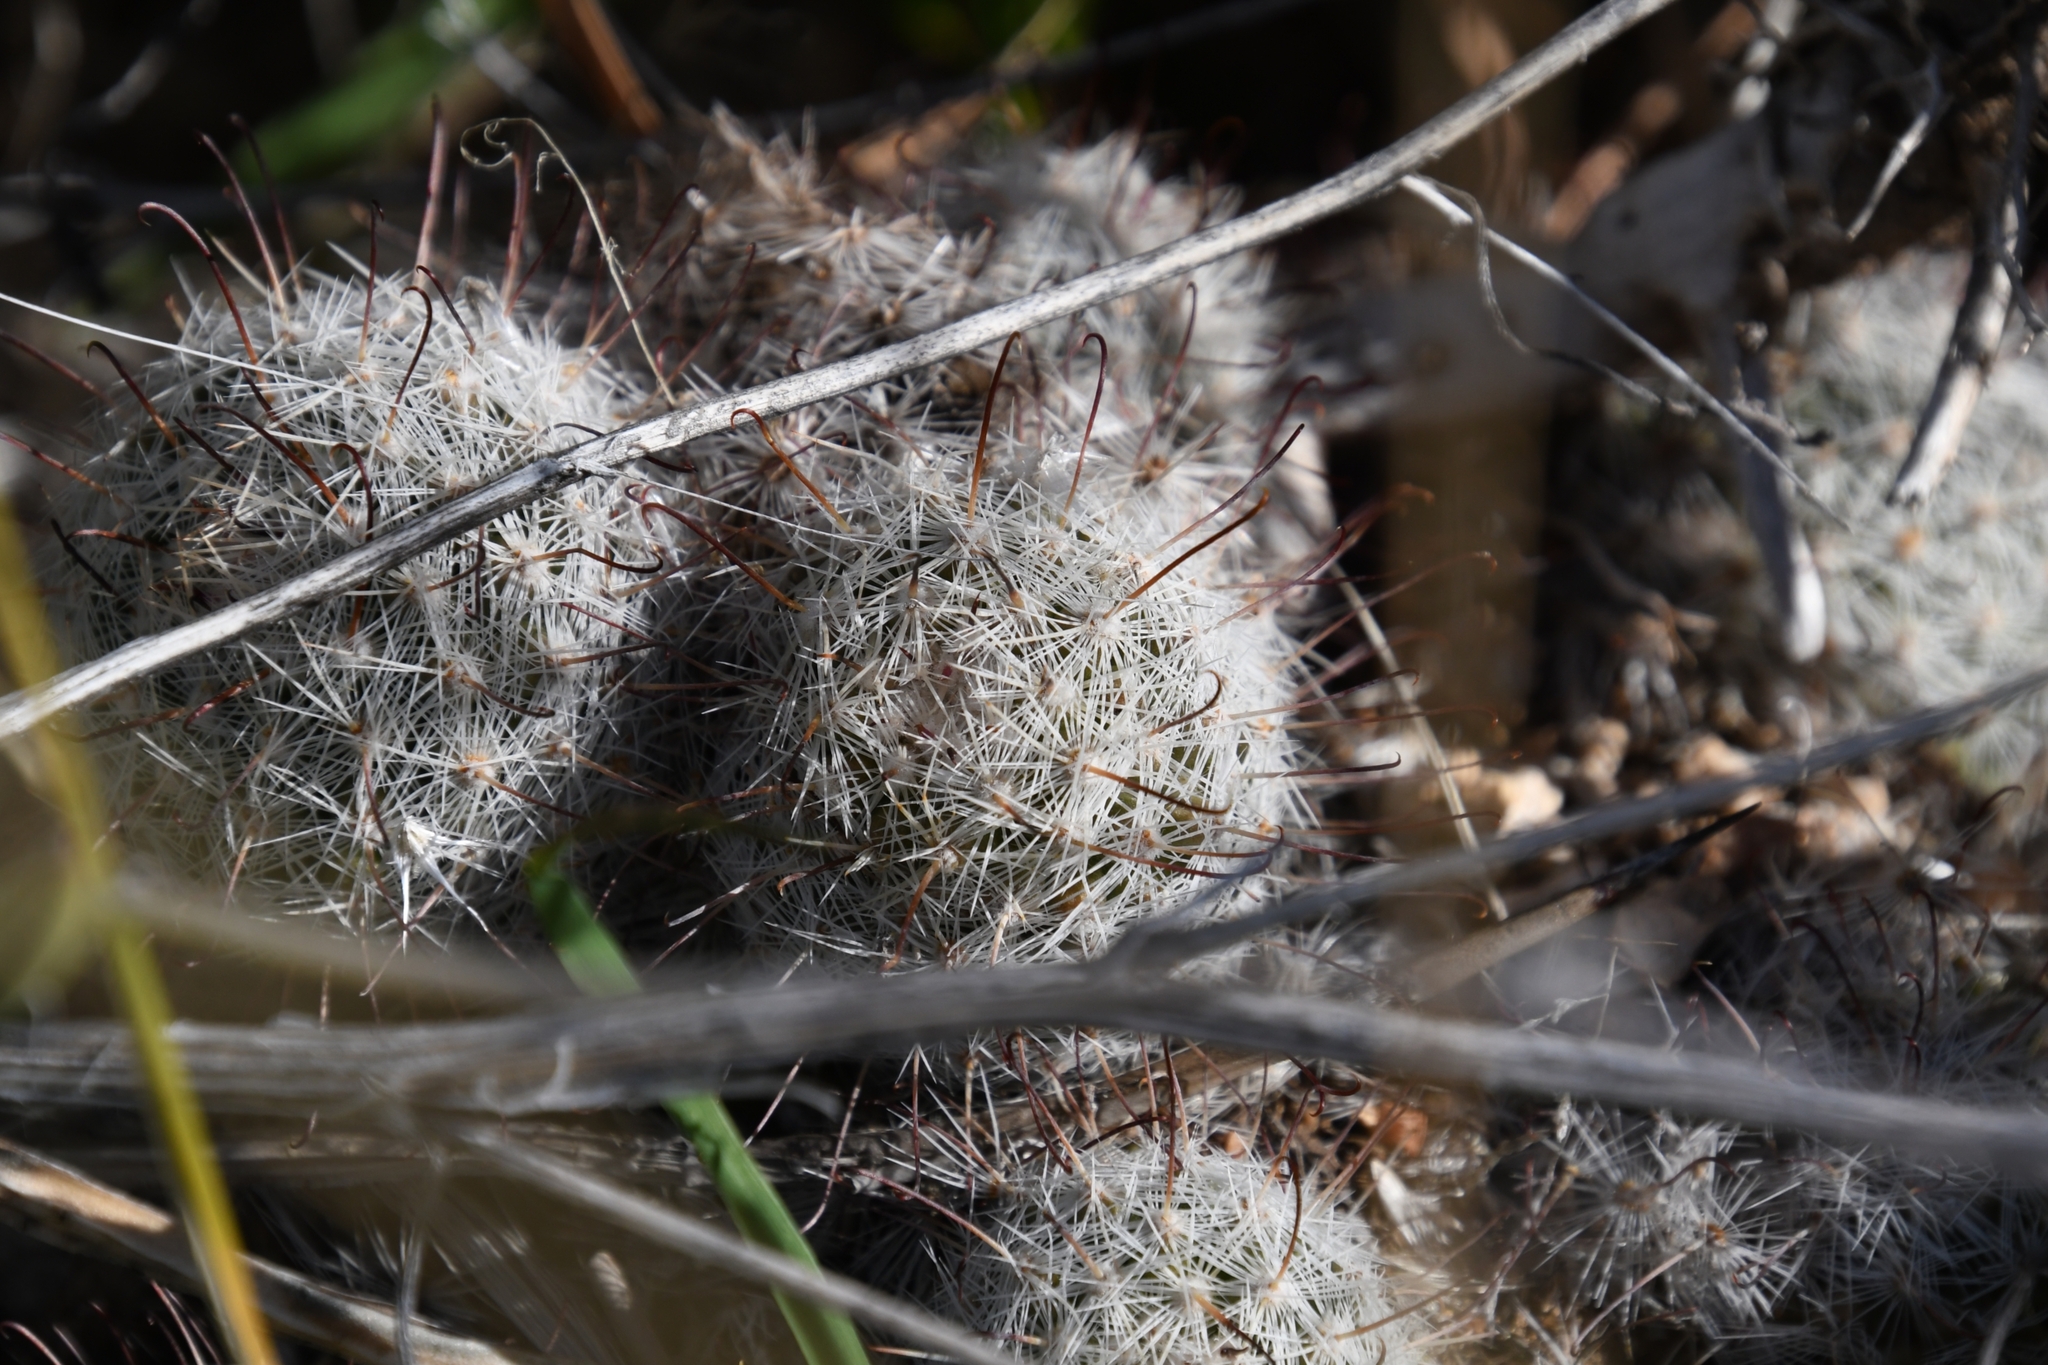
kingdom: Plantae
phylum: Tracheophyta
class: Magnoliopsida
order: Caryophyllales
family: Cactaceae
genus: Cochemiea
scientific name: Cochemiea grahamii
